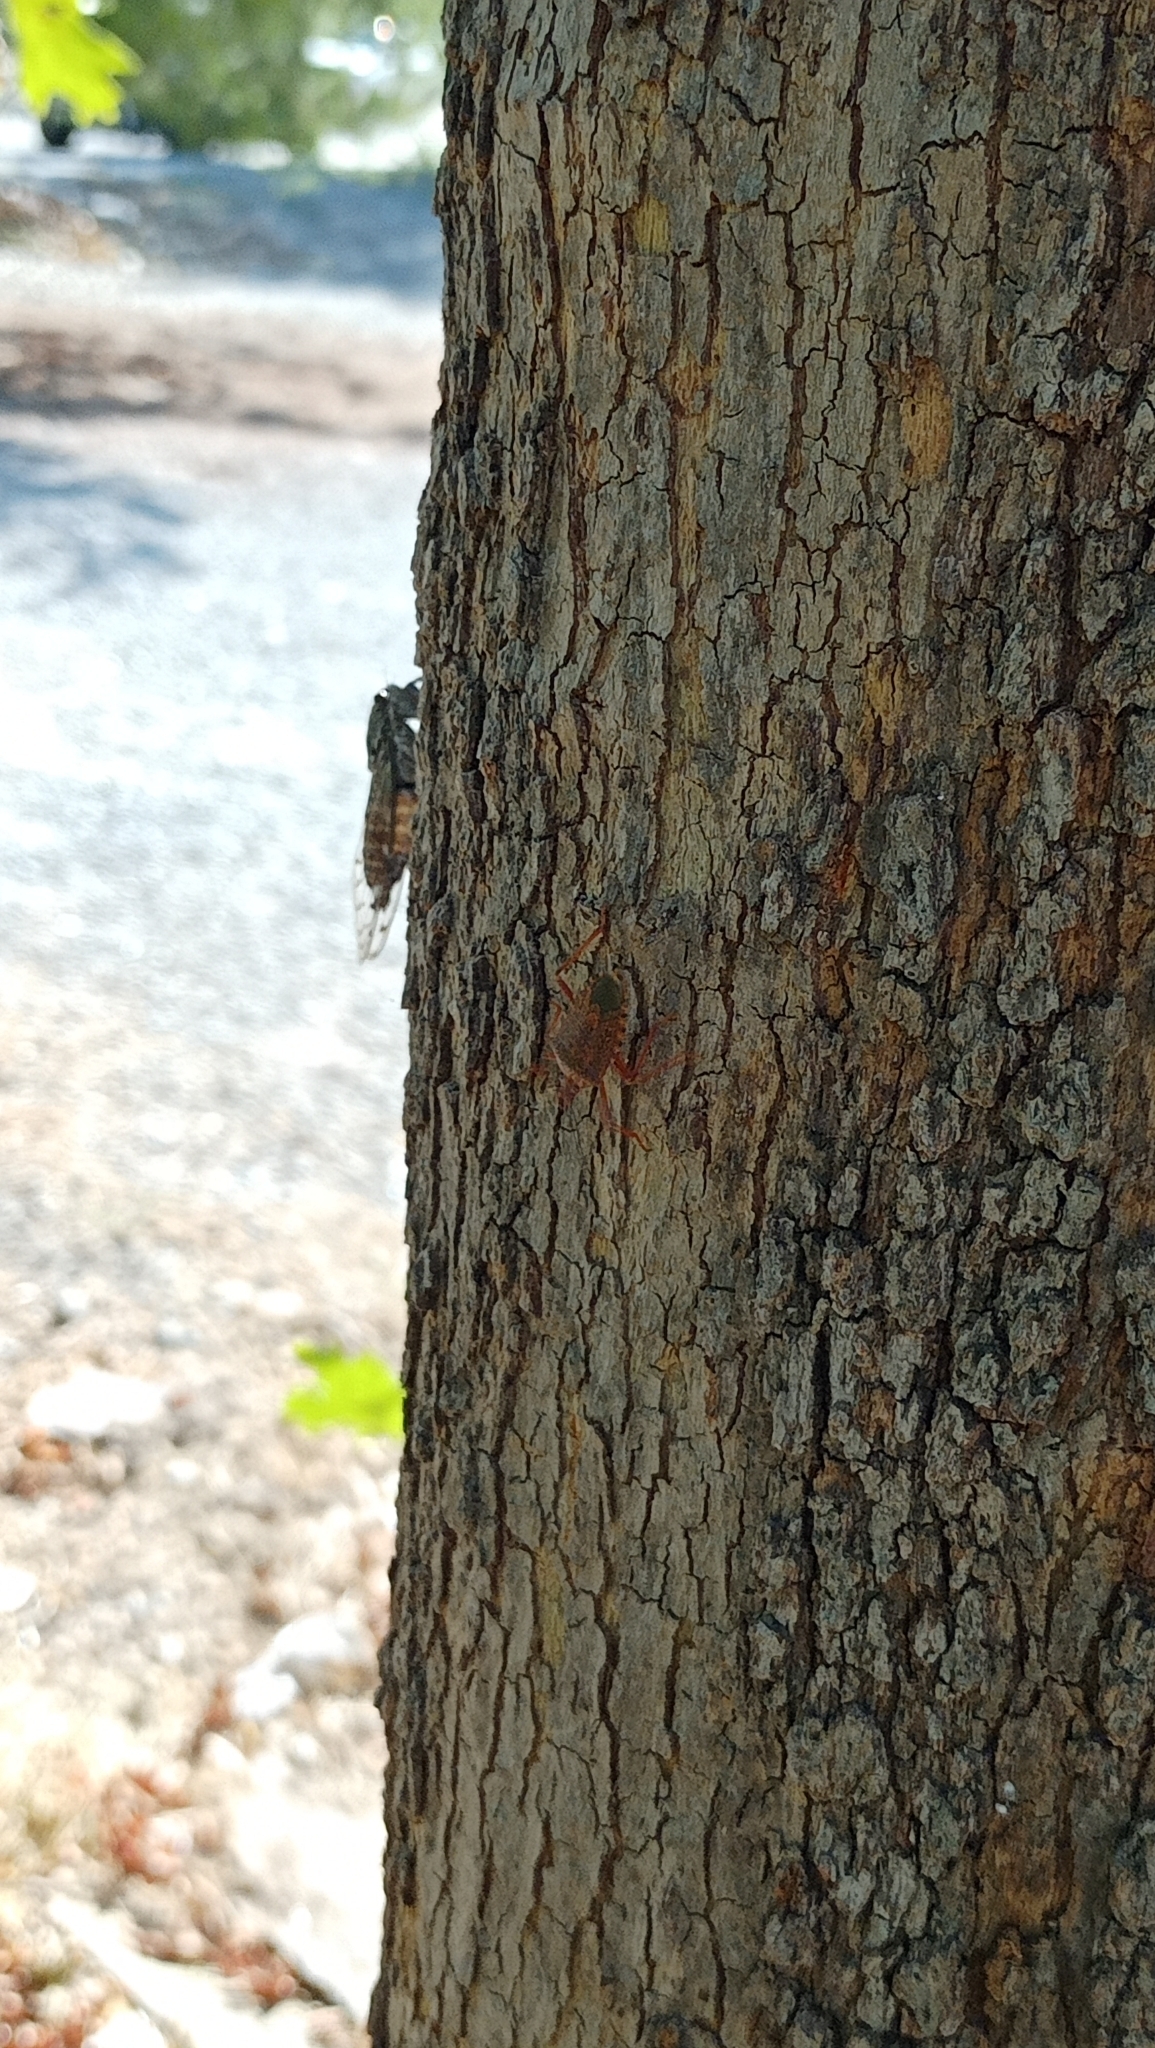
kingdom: Animalia
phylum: Arthropoda
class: Insecta
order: Hemiptera
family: Pentatomidae
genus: Apodiphus
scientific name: Apodiphus
